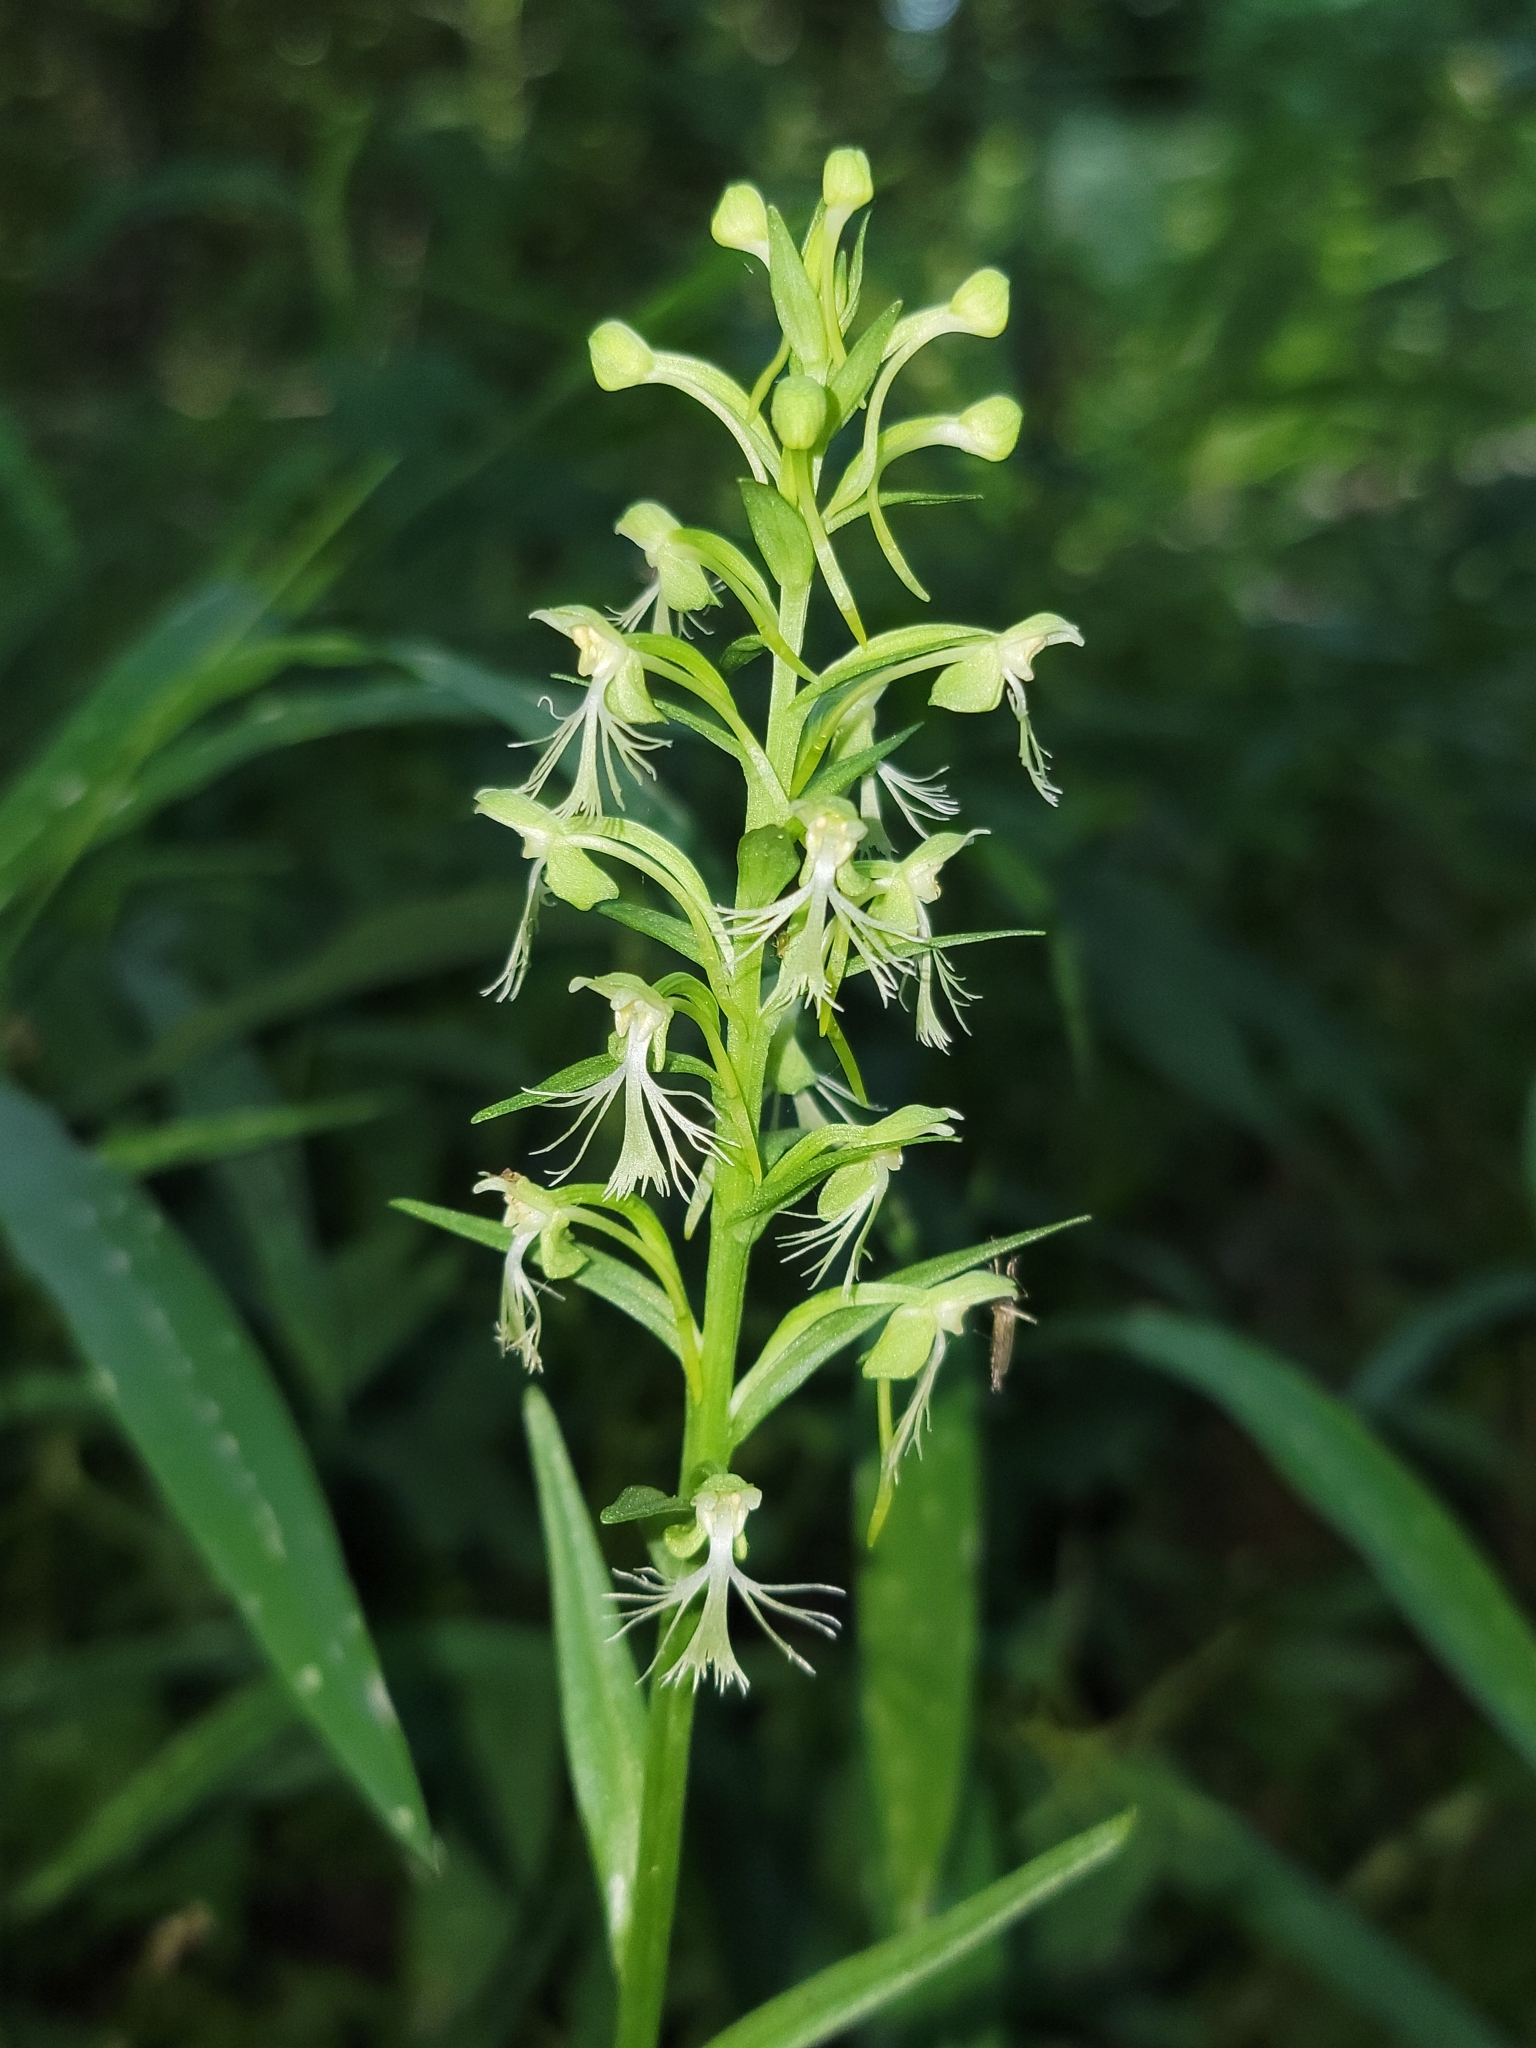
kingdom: Plantae
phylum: Tracheophyta
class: Liliopsida
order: Asparagales
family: Orchidaceae
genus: Platanthera
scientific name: Platanthera lacera
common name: Green fringed orchid
